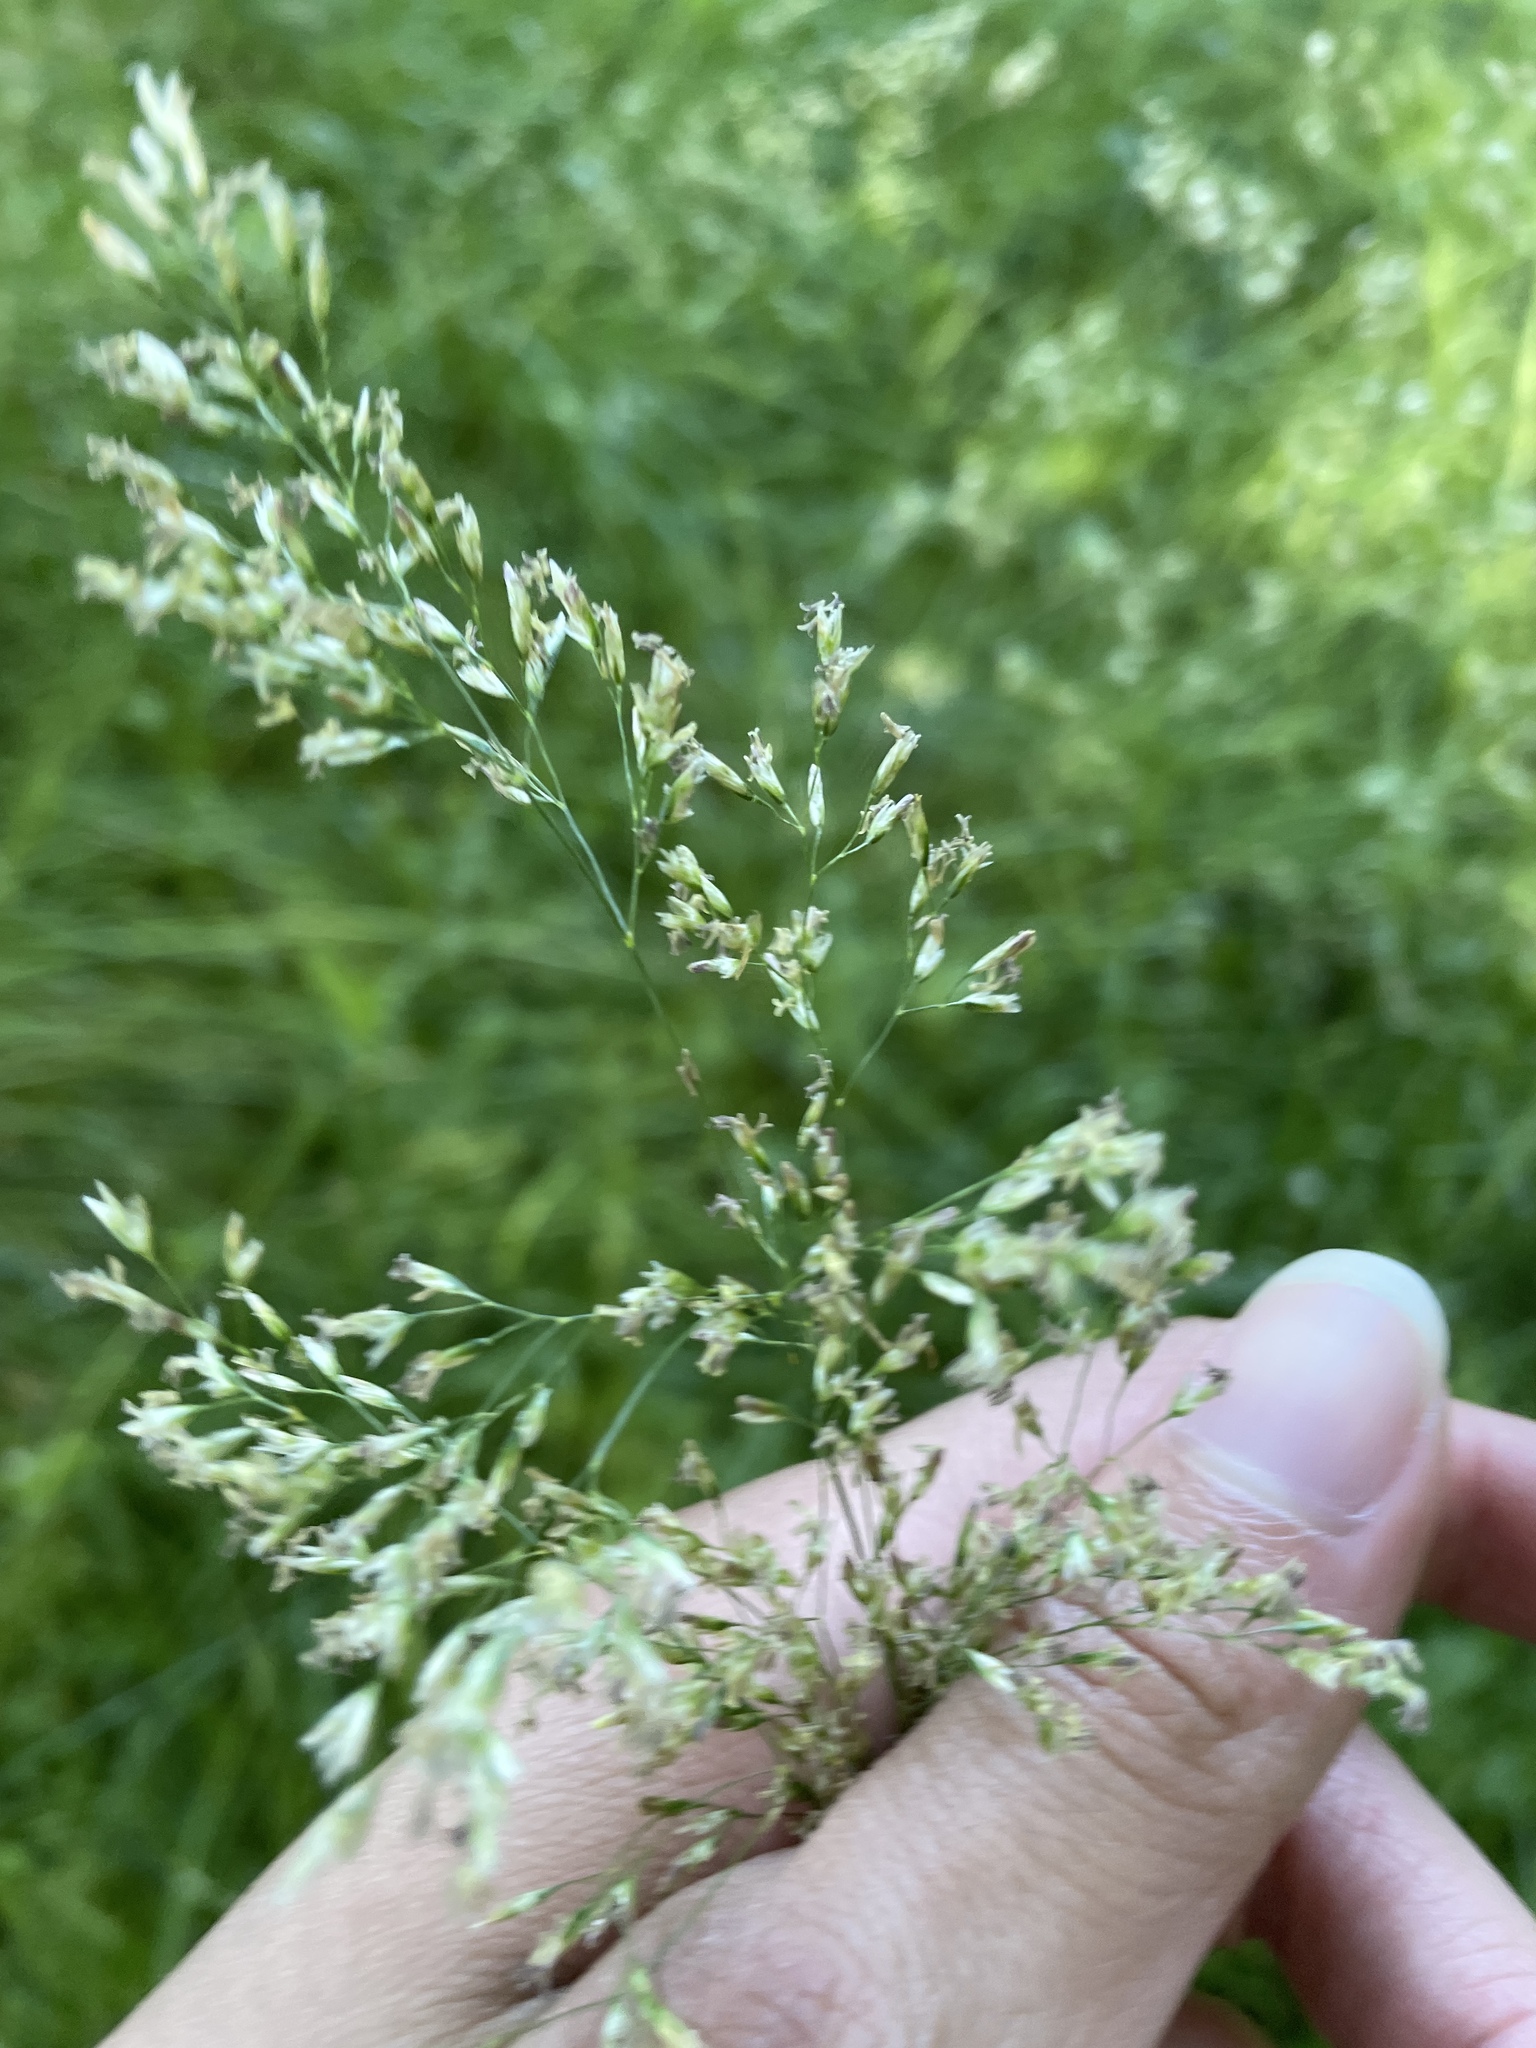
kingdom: Plantae
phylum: Tracheophyta
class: Liliopsida
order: Poales
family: Poaceae
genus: Deschampsia
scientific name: Deschampsia cespitosa
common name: Tufted hair-grass
